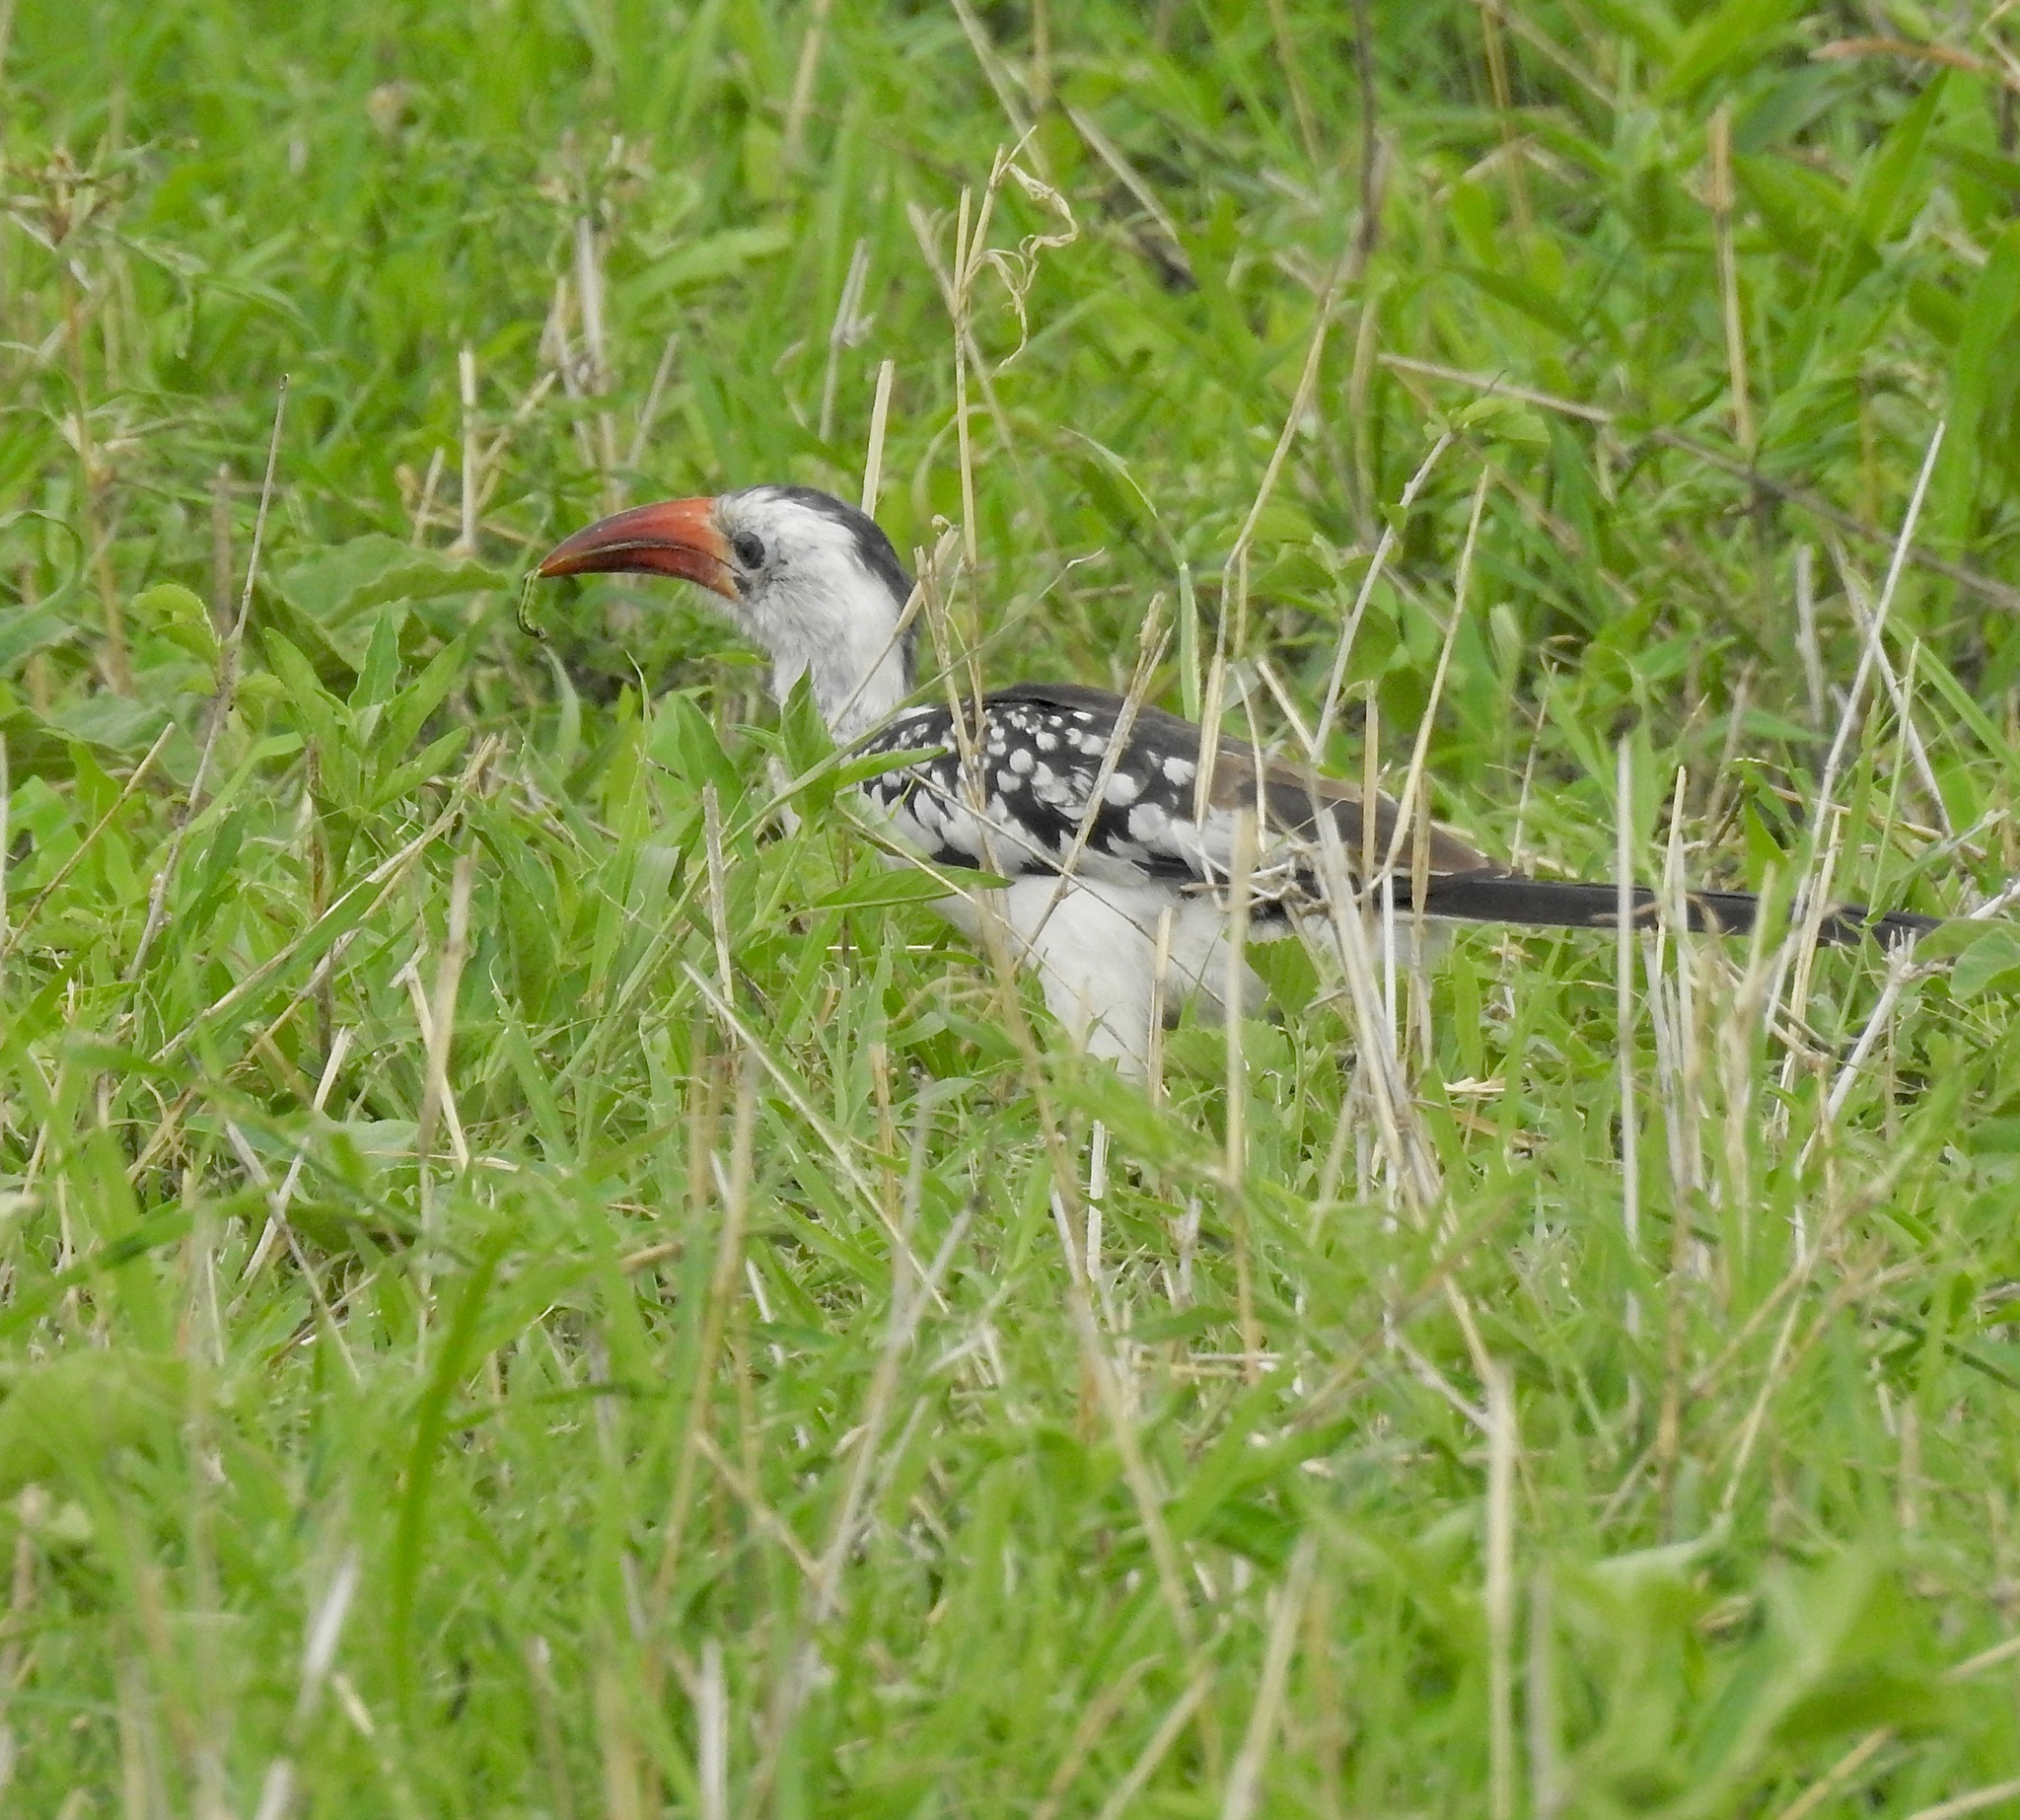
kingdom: Animalia
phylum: Chordata
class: Aves
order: Bucerotiformes
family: Bucerotidae
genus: Tockus
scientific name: Tockus erythrorhynchus
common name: Northern red-billed hornbill
